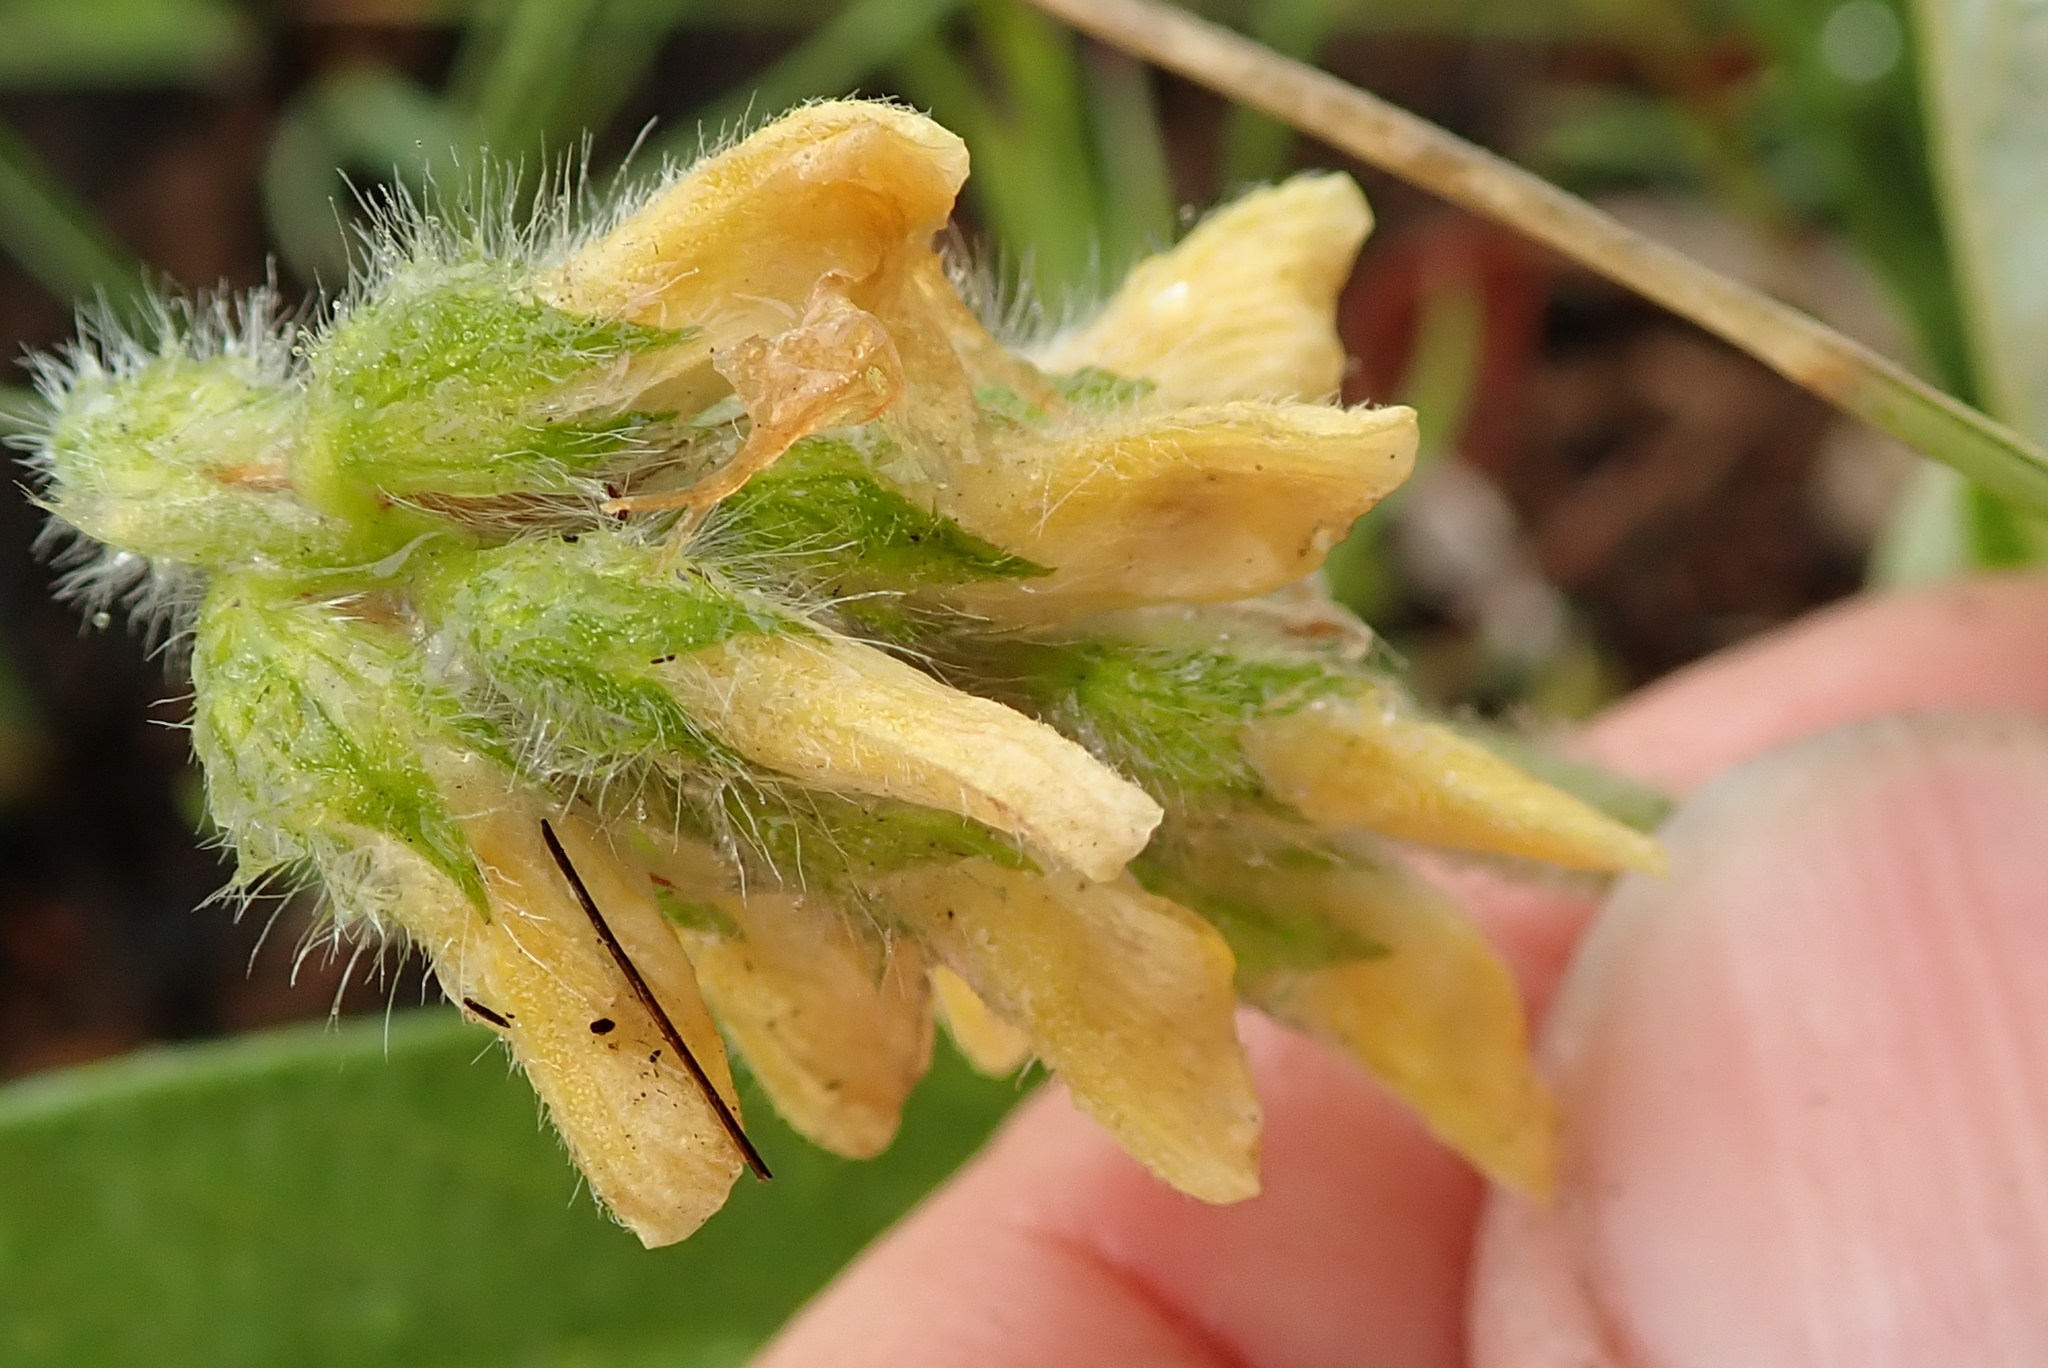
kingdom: Plantae
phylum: Tracheophyta
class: Magnoliopsida
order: Fabales
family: Fabaceae
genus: Eriosema
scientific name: Eriosema salignum
